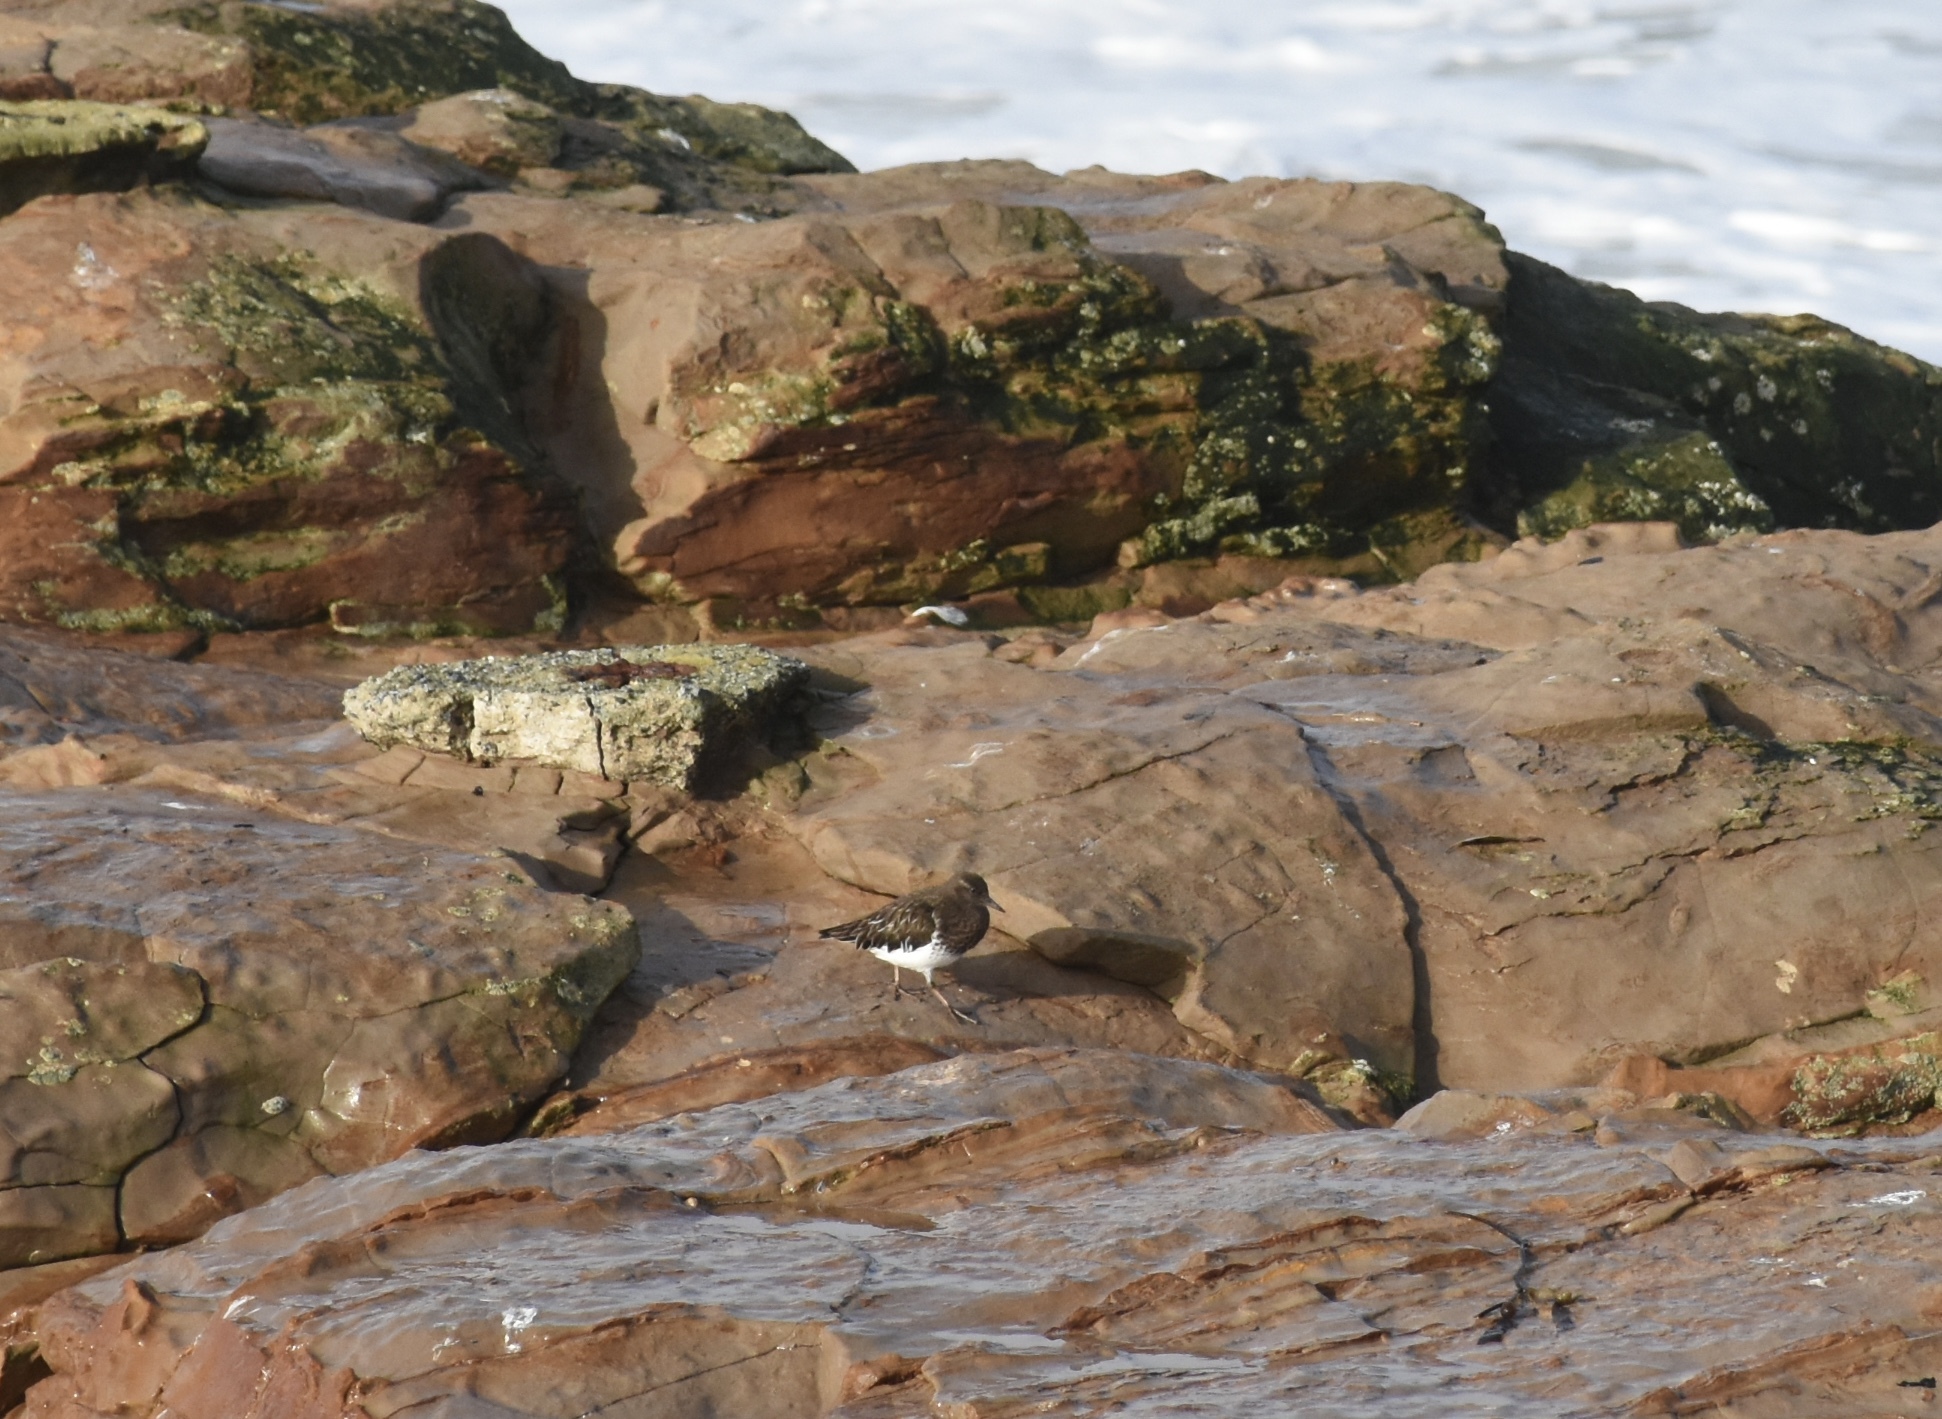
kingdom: Animalia
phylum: Chordata
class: Aves
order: Charadriiformes
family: Scolopacidae
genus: Arenaria
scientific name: Arenaria melanocephala
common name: Black turnstone
